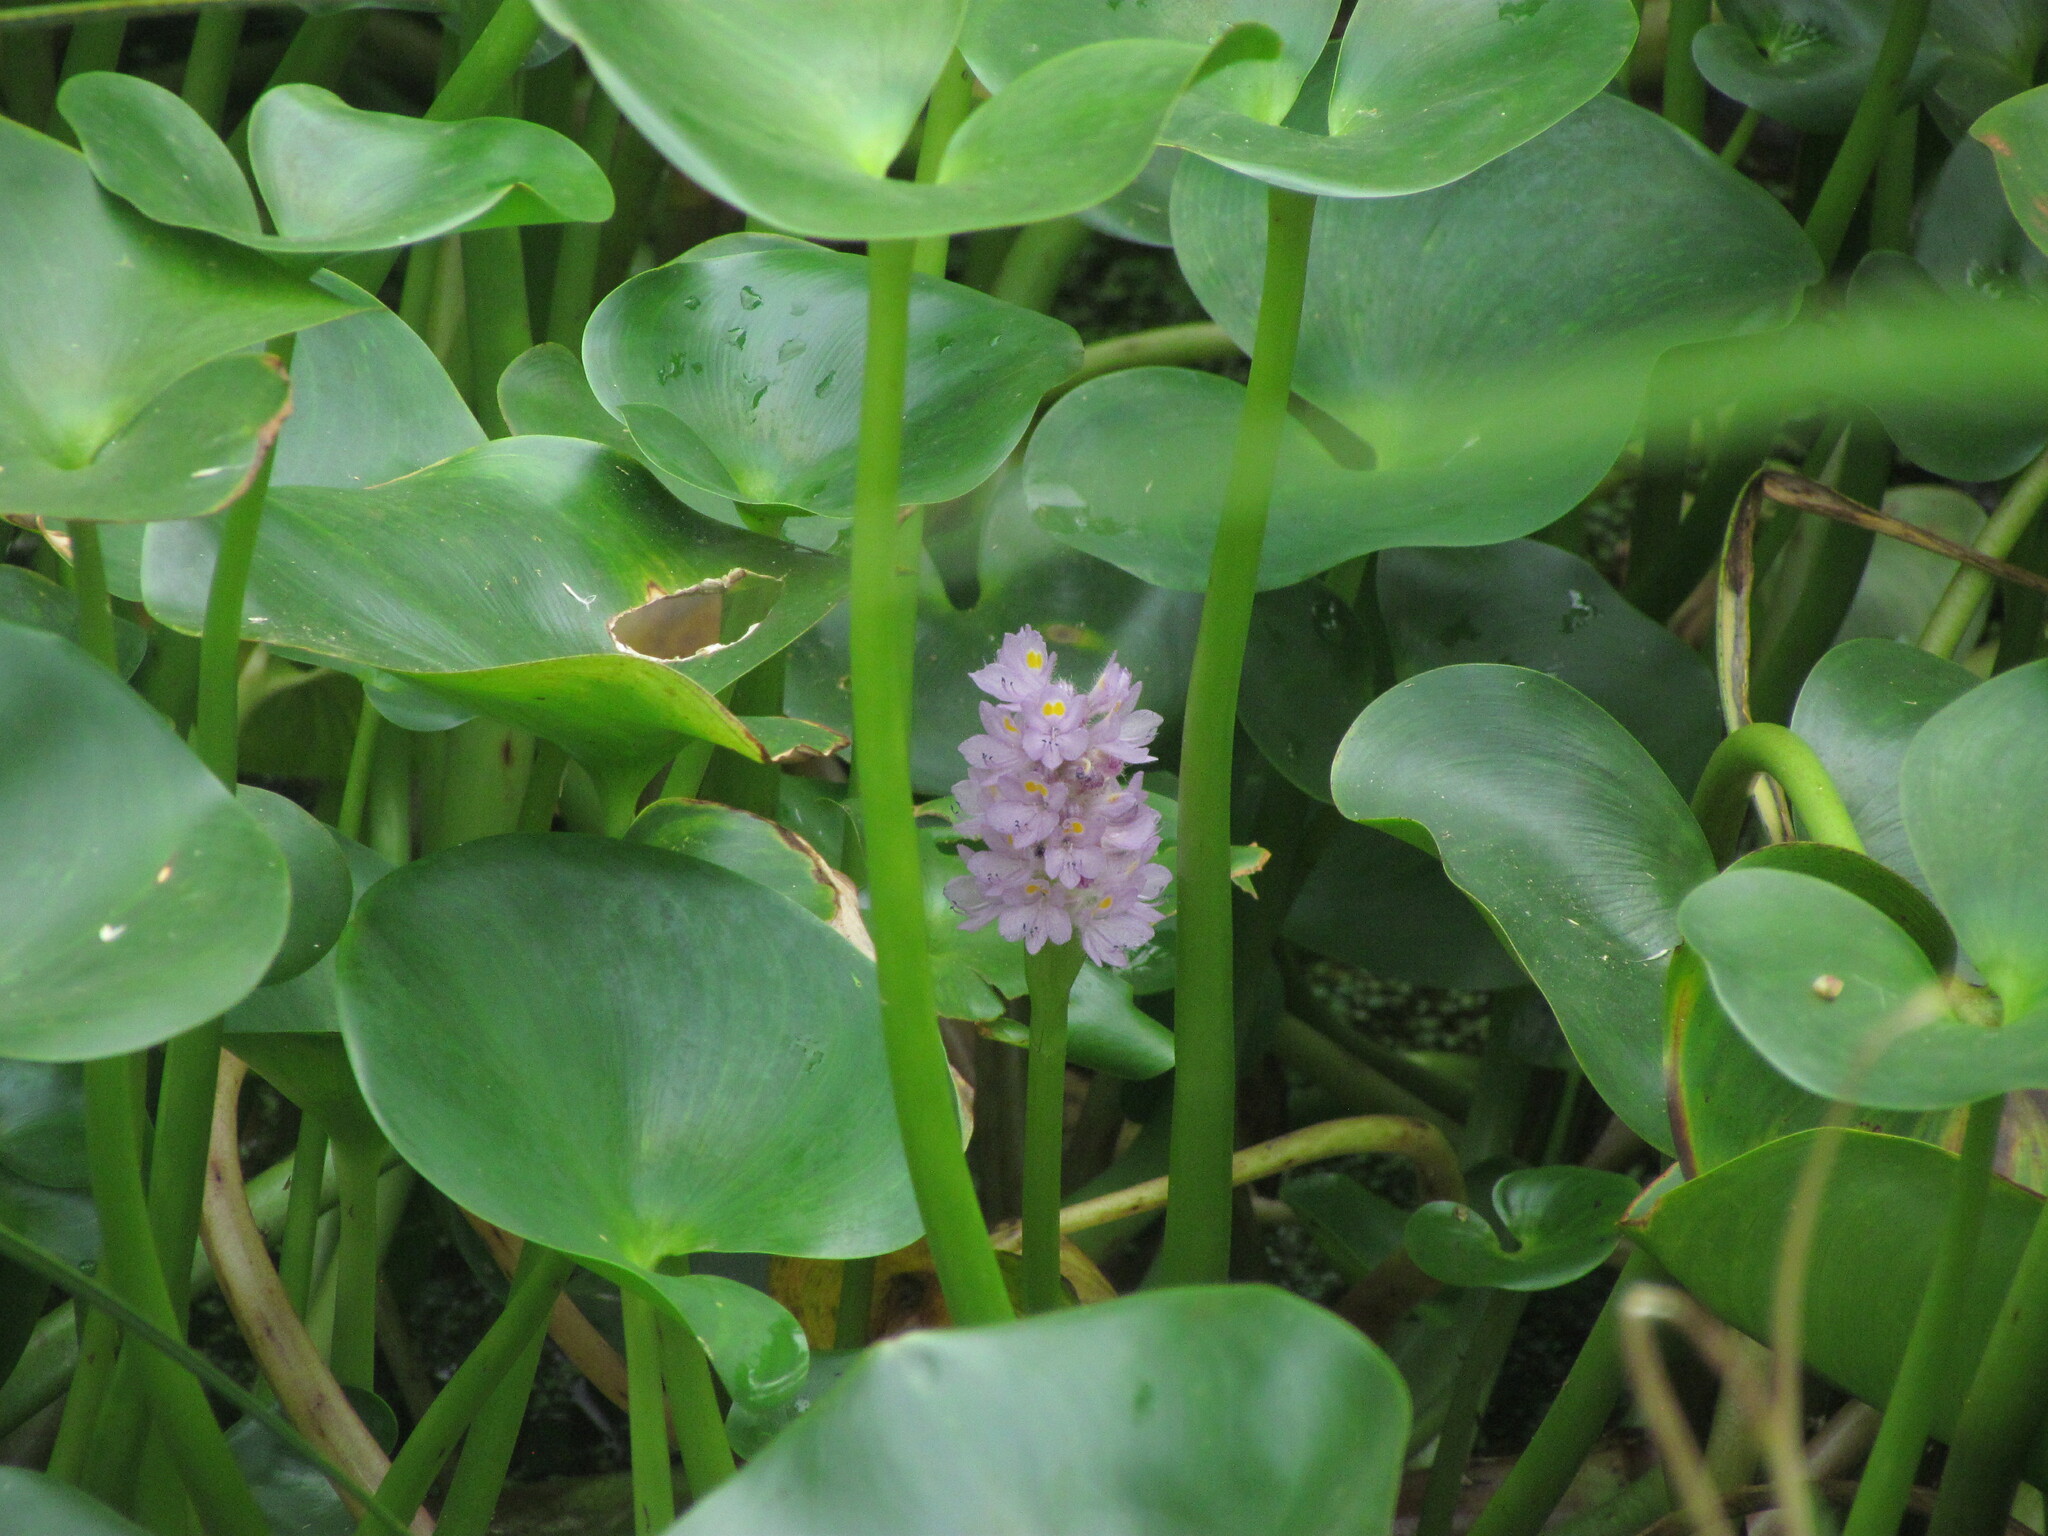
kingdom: Plantae
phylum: Tracheophyta
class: Liliopsida
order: Commelinales
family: Pontederiaceae
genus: Pontederia
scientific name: Pontederia rotundifolia
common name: Tropical pickerel-weed
